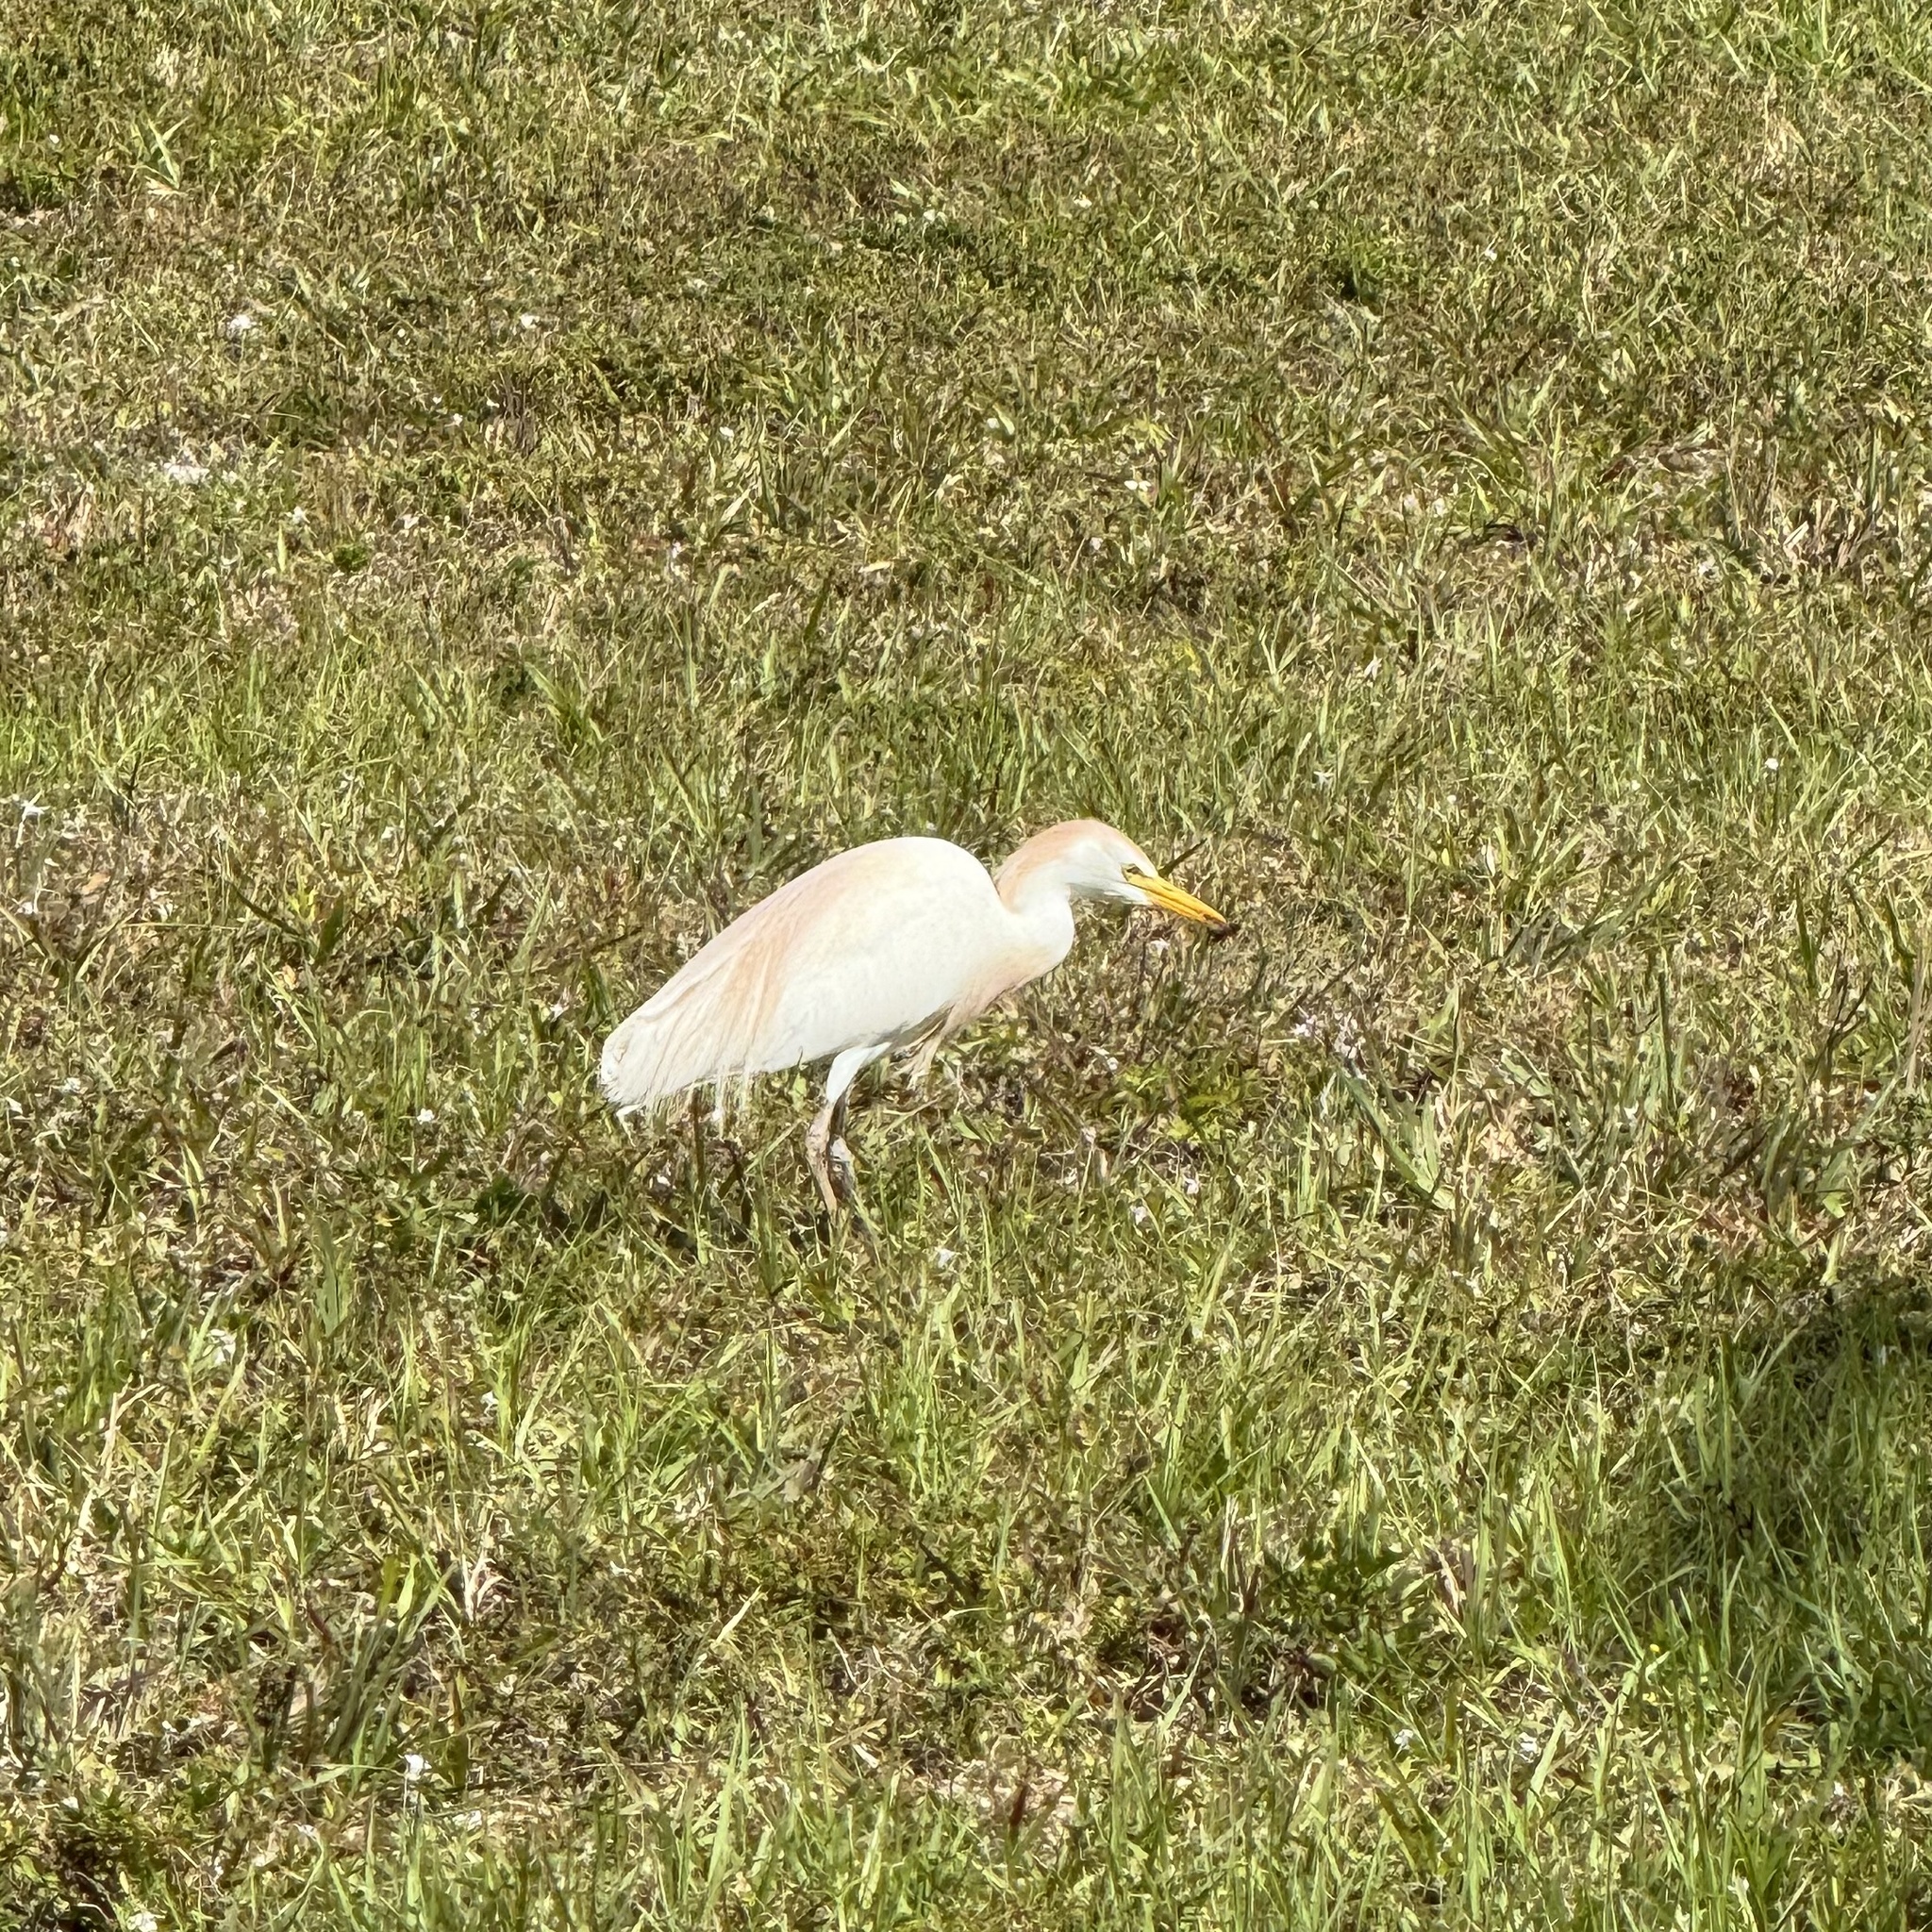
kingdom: Animalia
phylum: Chordata
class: Aves
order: Pelecaniformes
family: Ardeidae
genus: Bubulcus
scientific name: Bubulcus ibis
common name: Cattle egret
